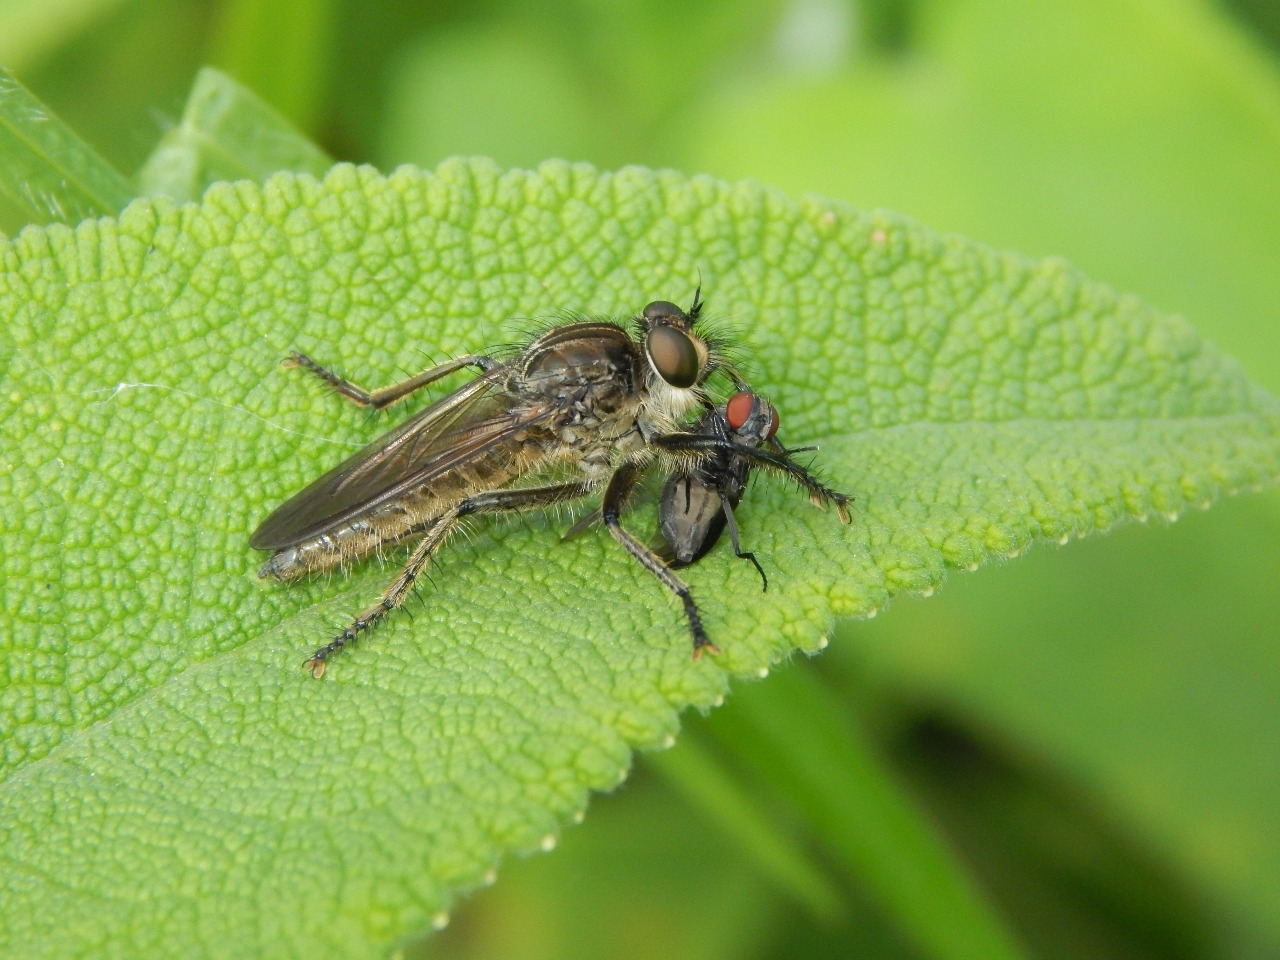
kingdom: Animalia
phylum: Arthropoda
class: Insecta
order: Diptera
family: Asilidae
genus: Epipamponeurus
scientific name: Epipamponeurus americanus
